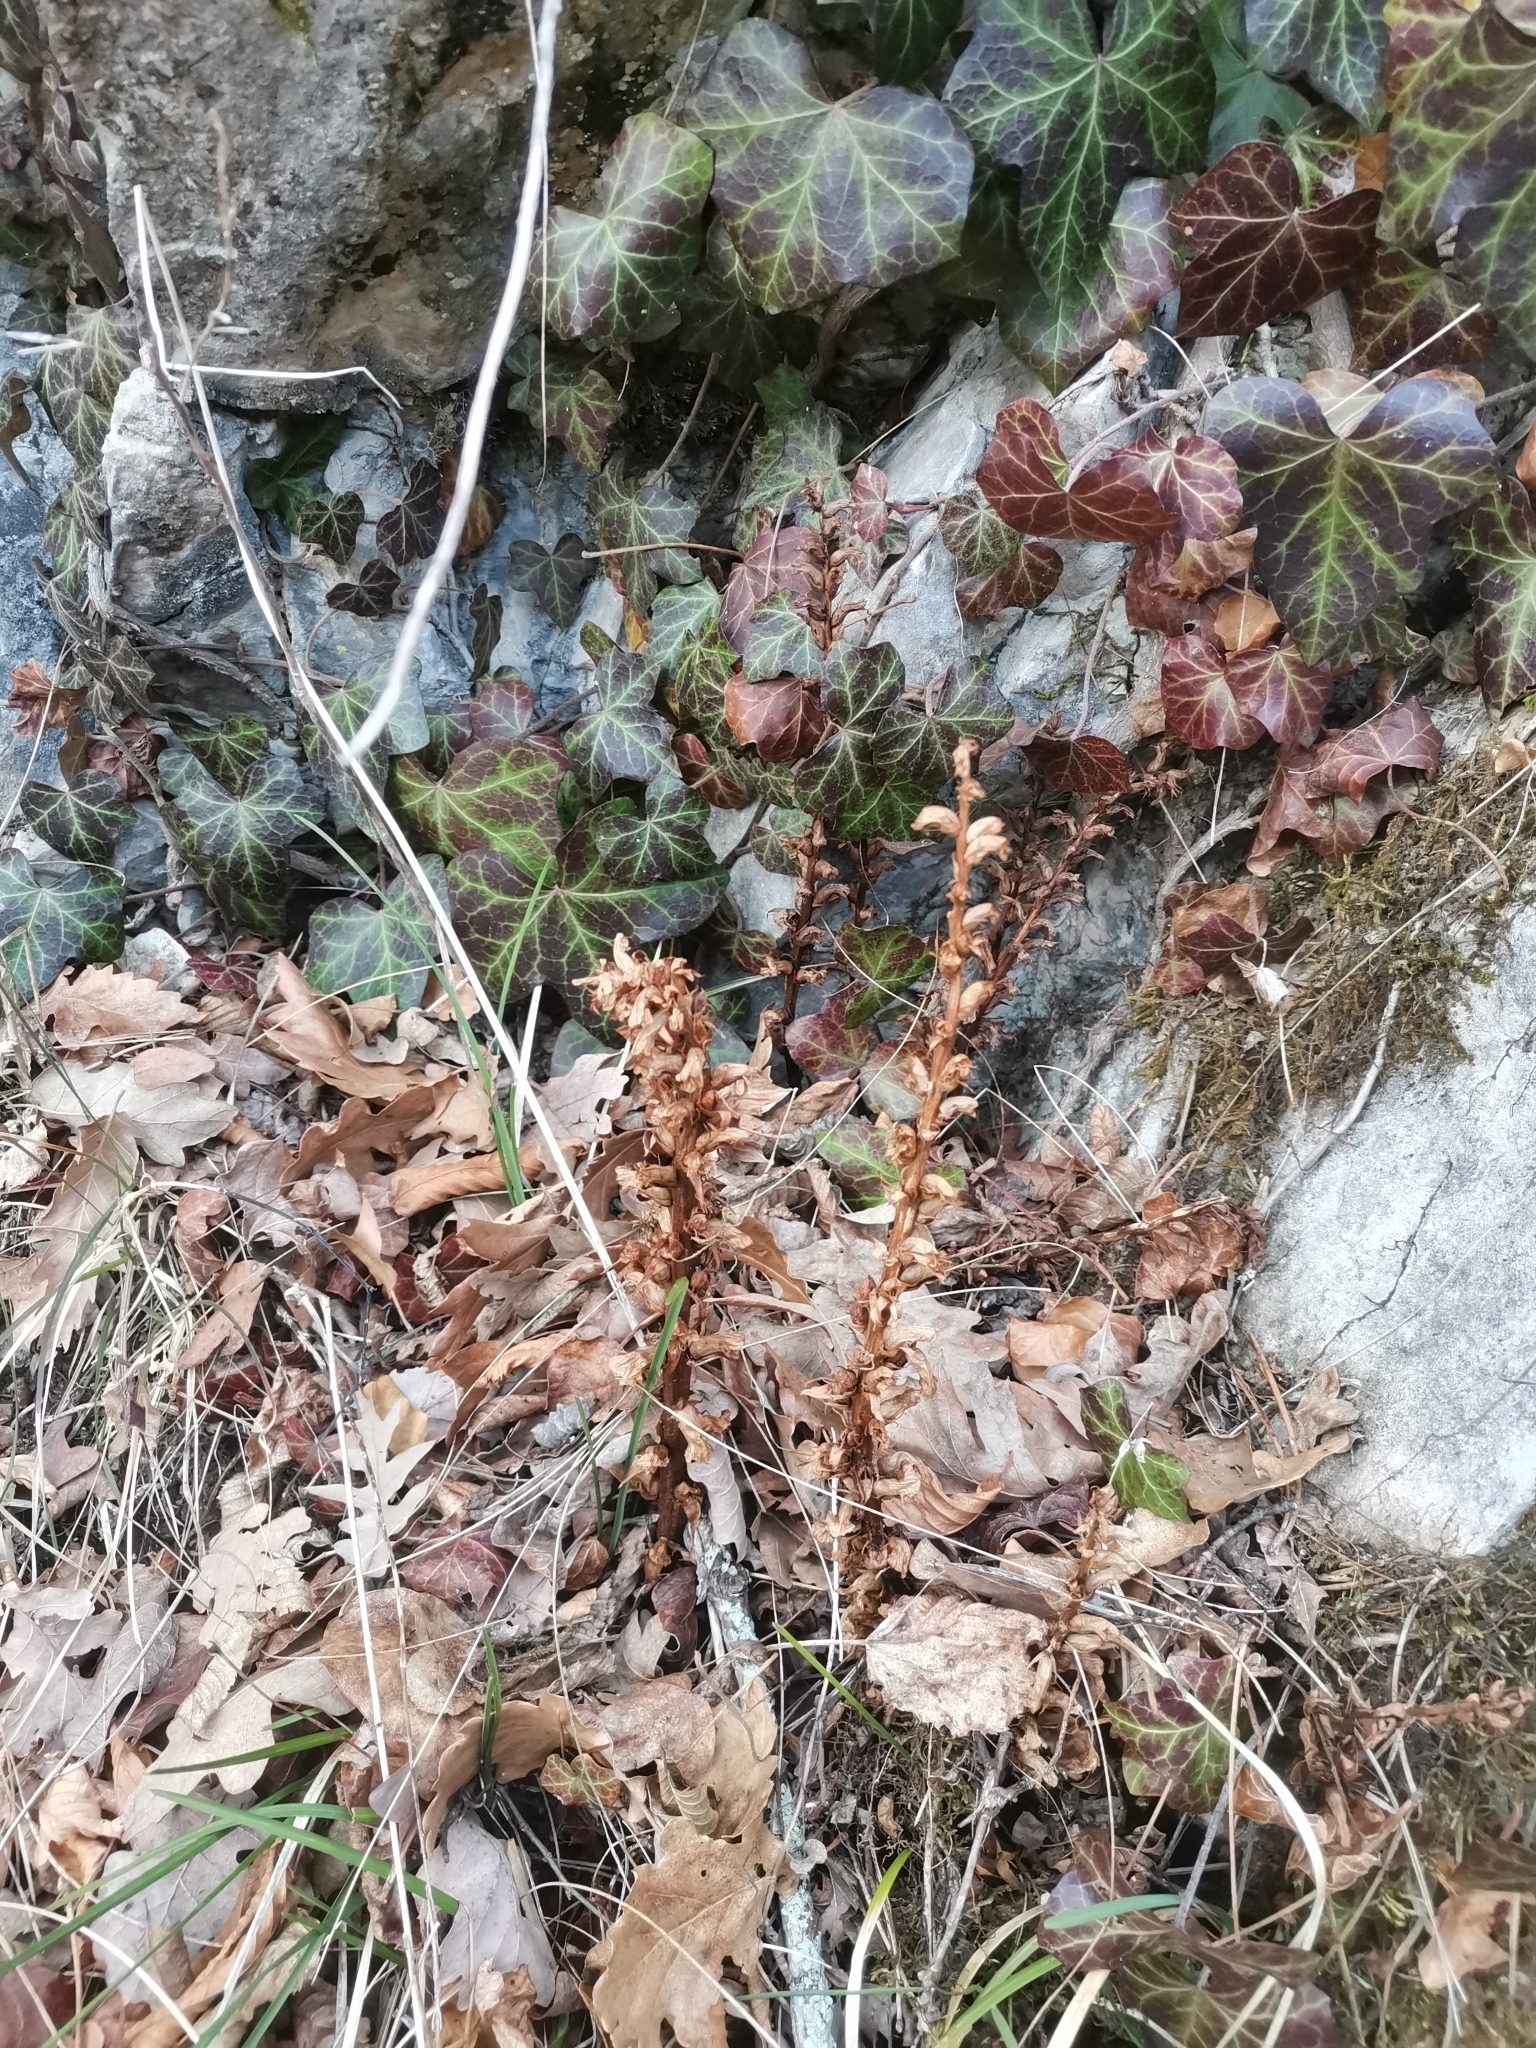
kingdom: Plantae
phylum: Tracheophyta
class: Magnoliopsida
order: Lamiales
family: Orobanchaceae
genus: Orobanche
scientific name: Orobanche hederae
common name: Ivy broomrape
